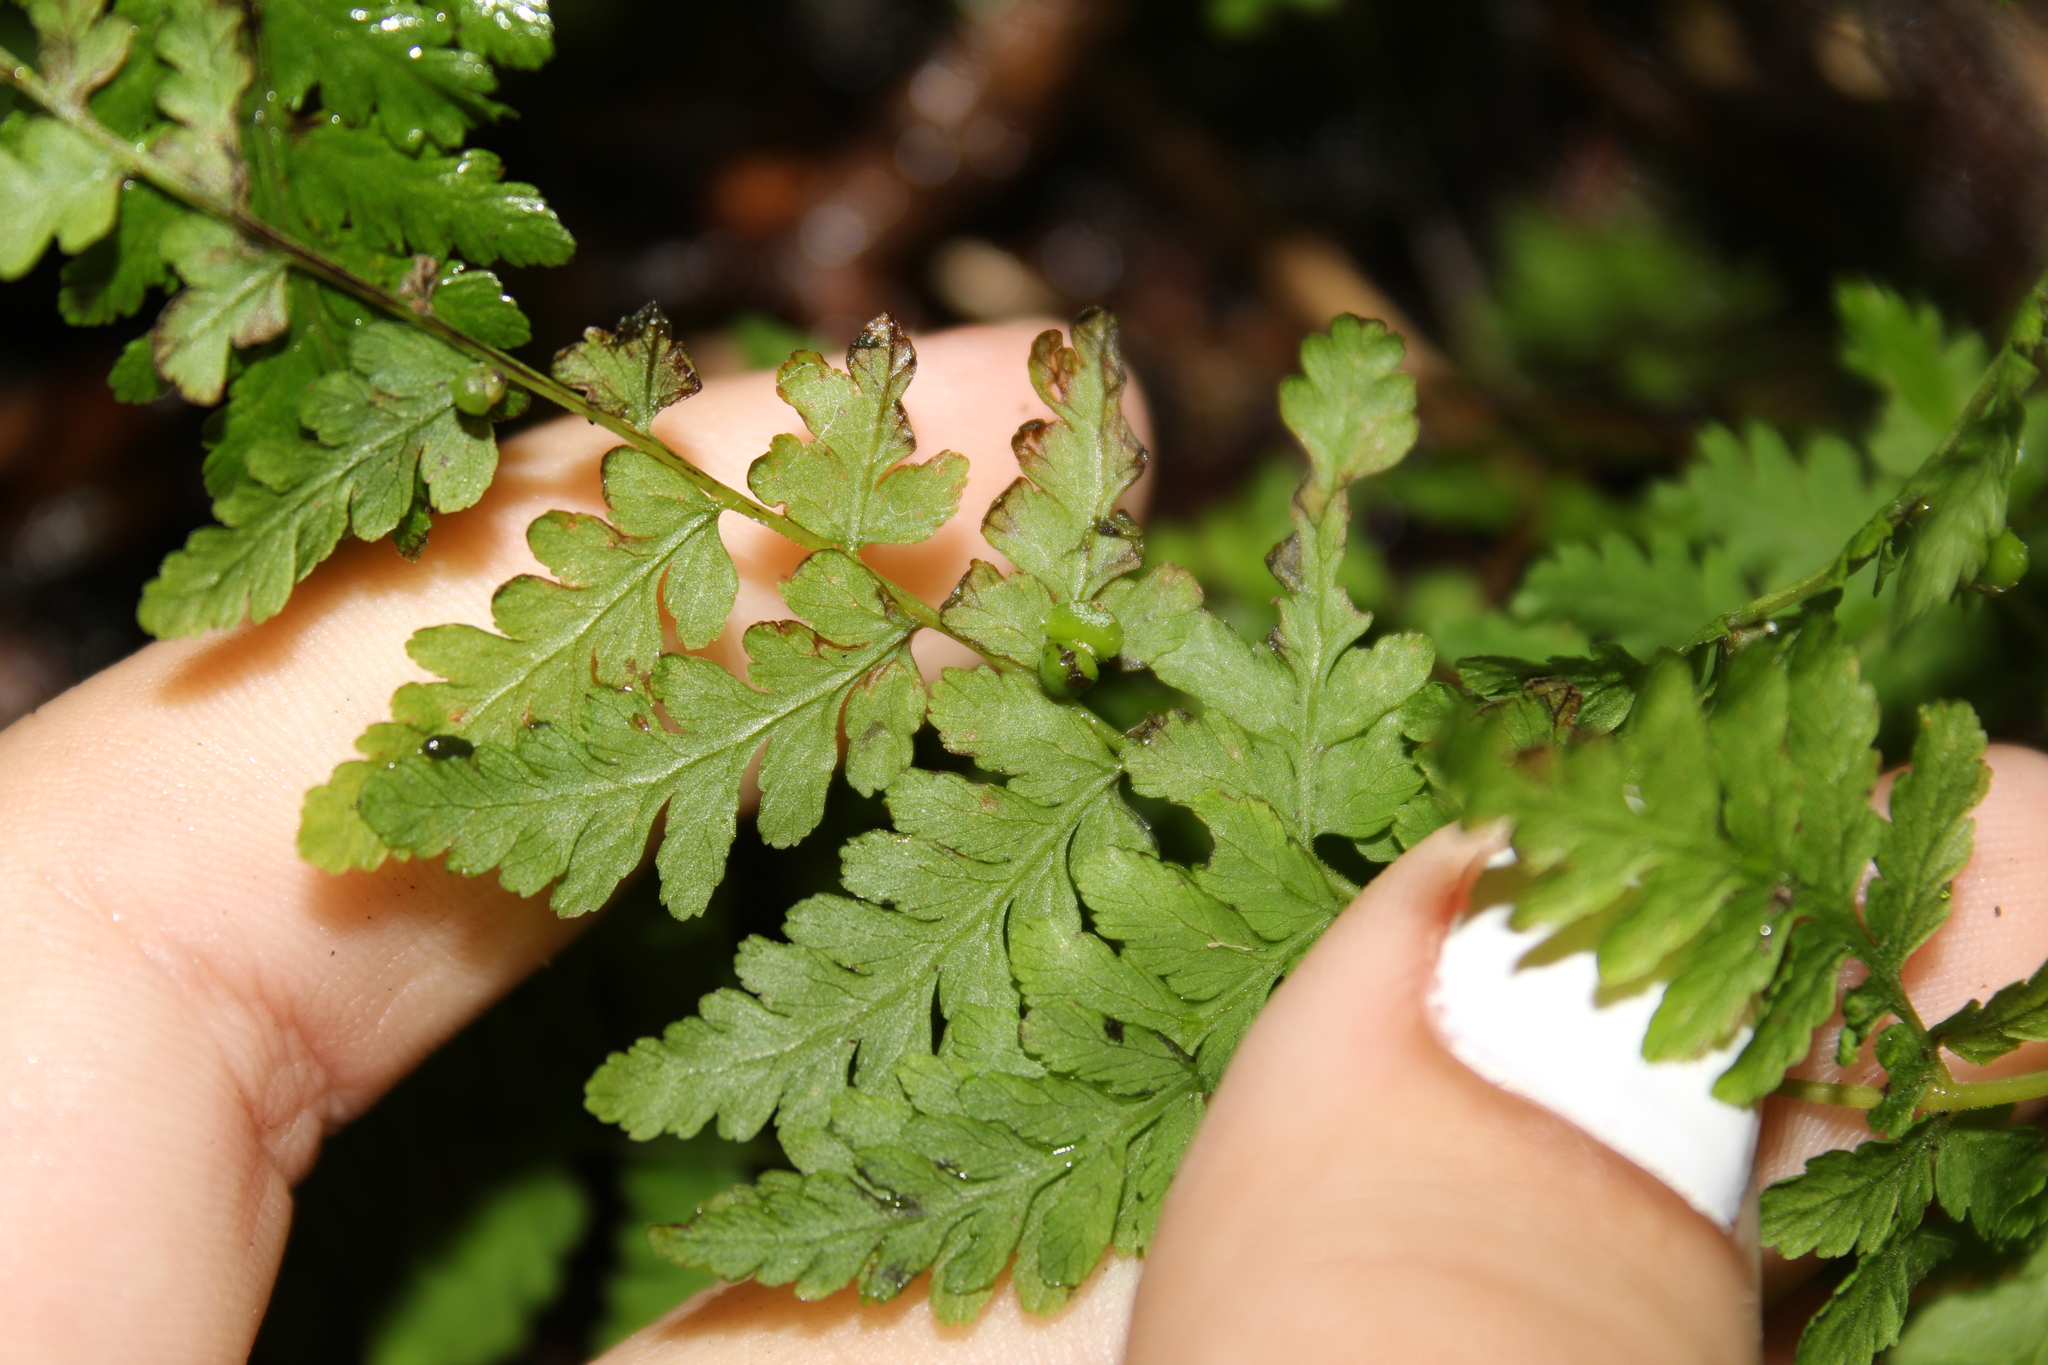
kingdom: Plantae
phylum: Tracheophyta
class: Polypodiopsida
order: Polypodiales
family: Cystopteridaceae
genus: Cystopteris
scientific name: Cystopteris bulbifera
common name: Bulblet bladder fern
